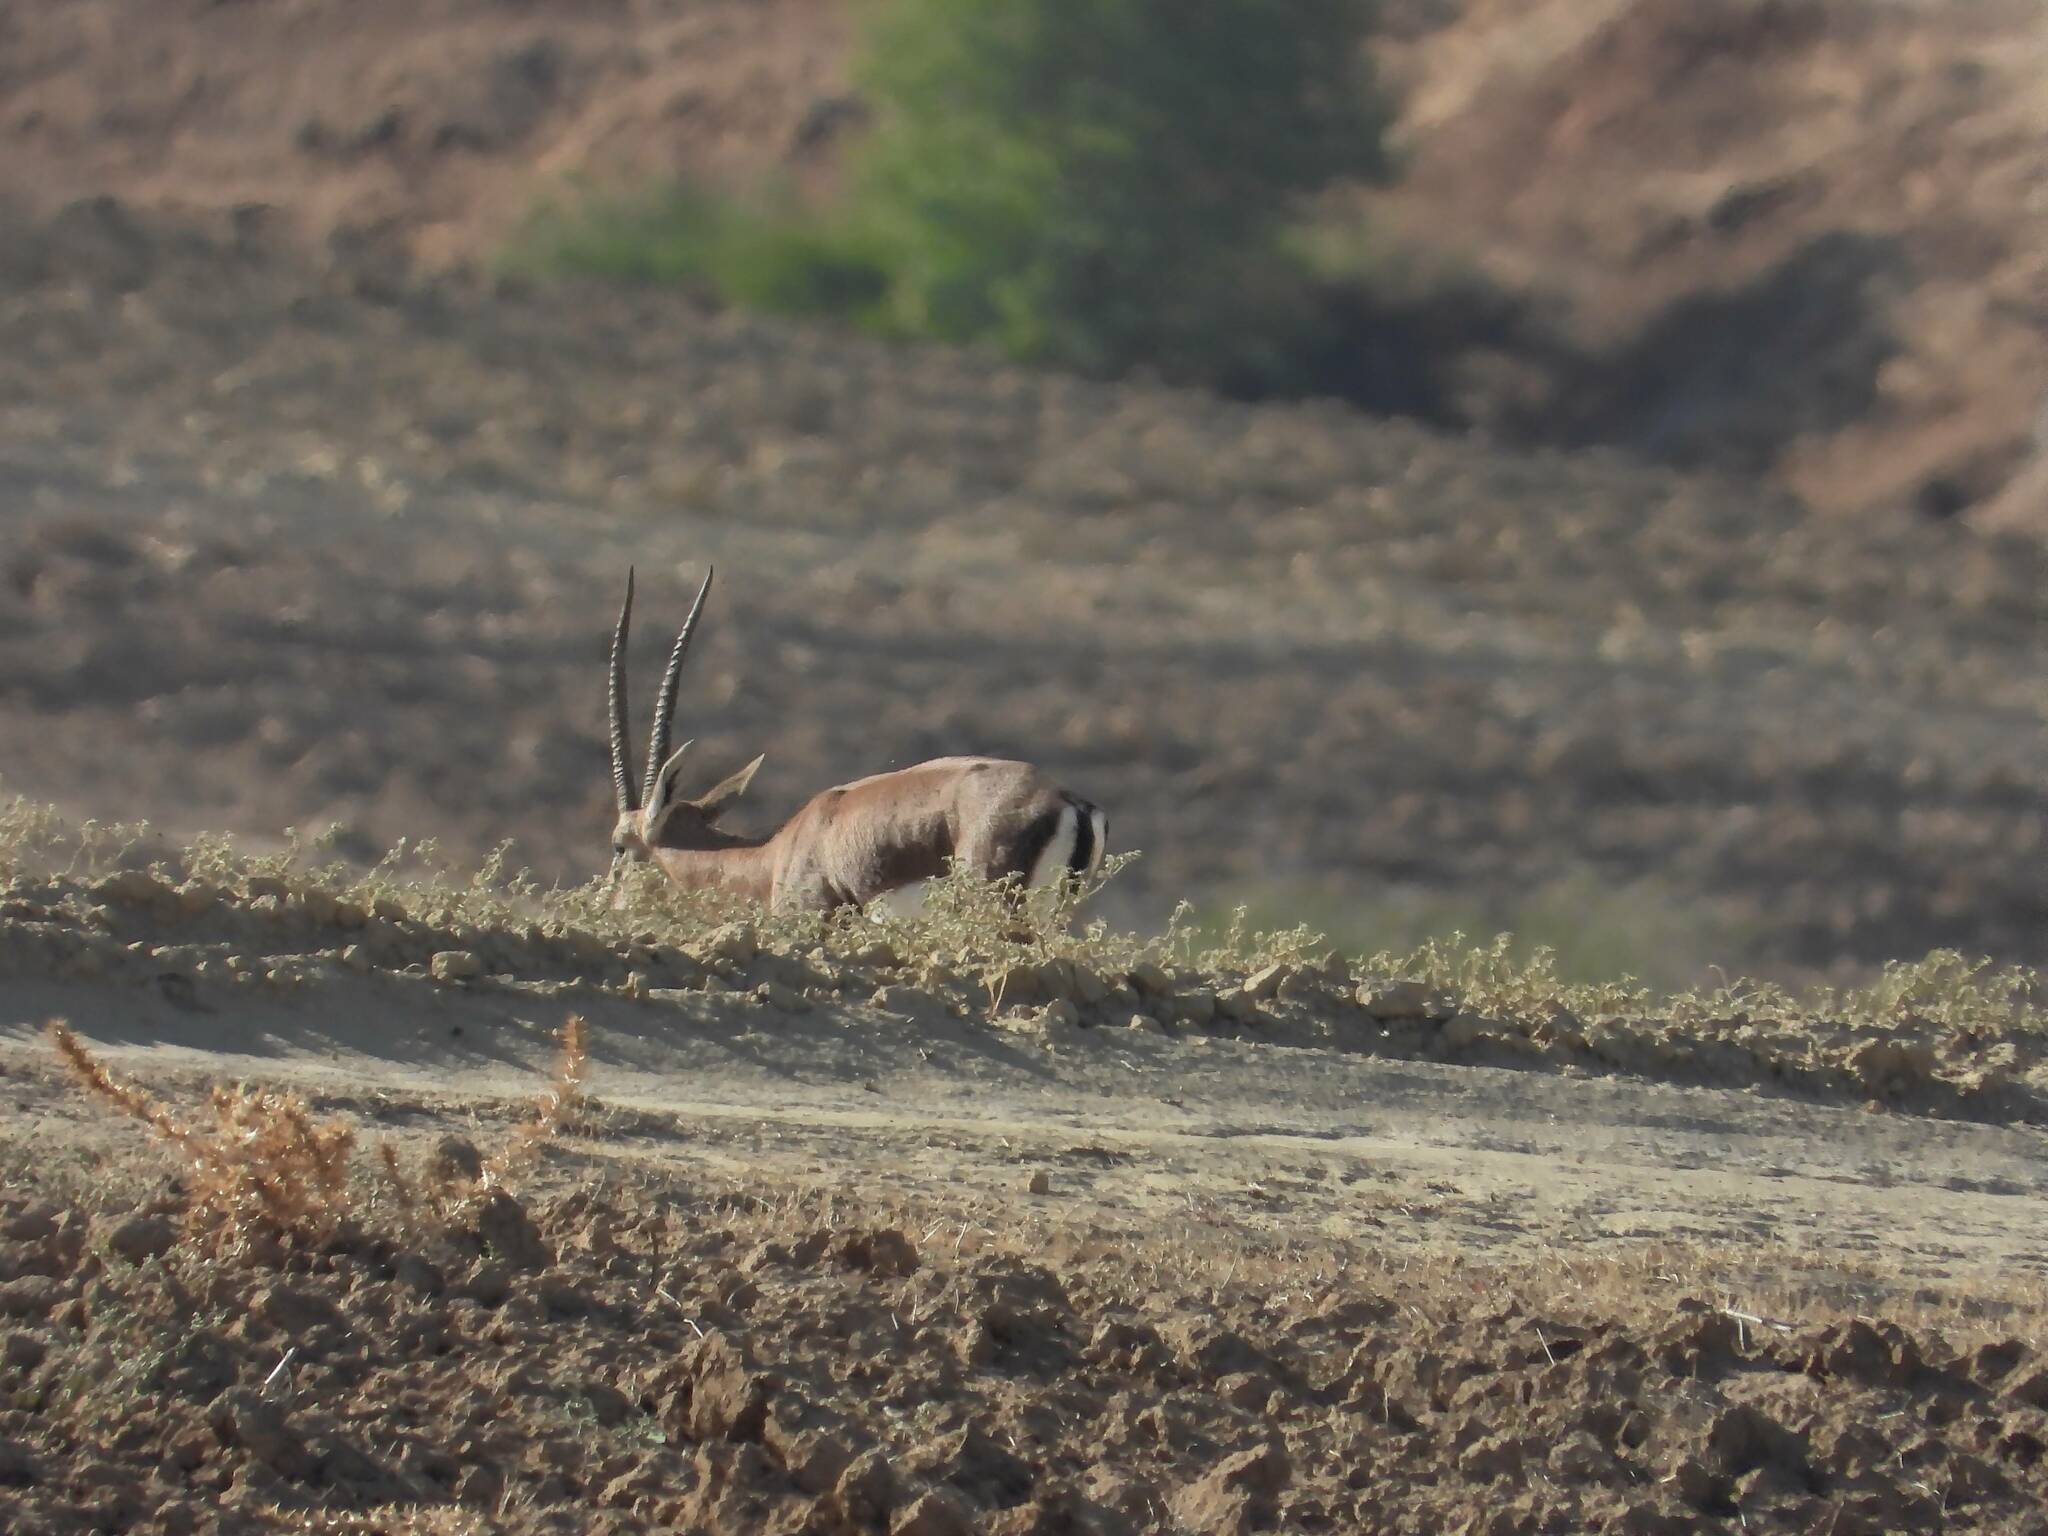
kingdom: Animalia
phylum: Chordata
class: Mammalia
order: Artiodactyla
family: Bovidae
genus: Gazella
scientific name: Gazella cuvieri
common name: Cuvier's gazelle
